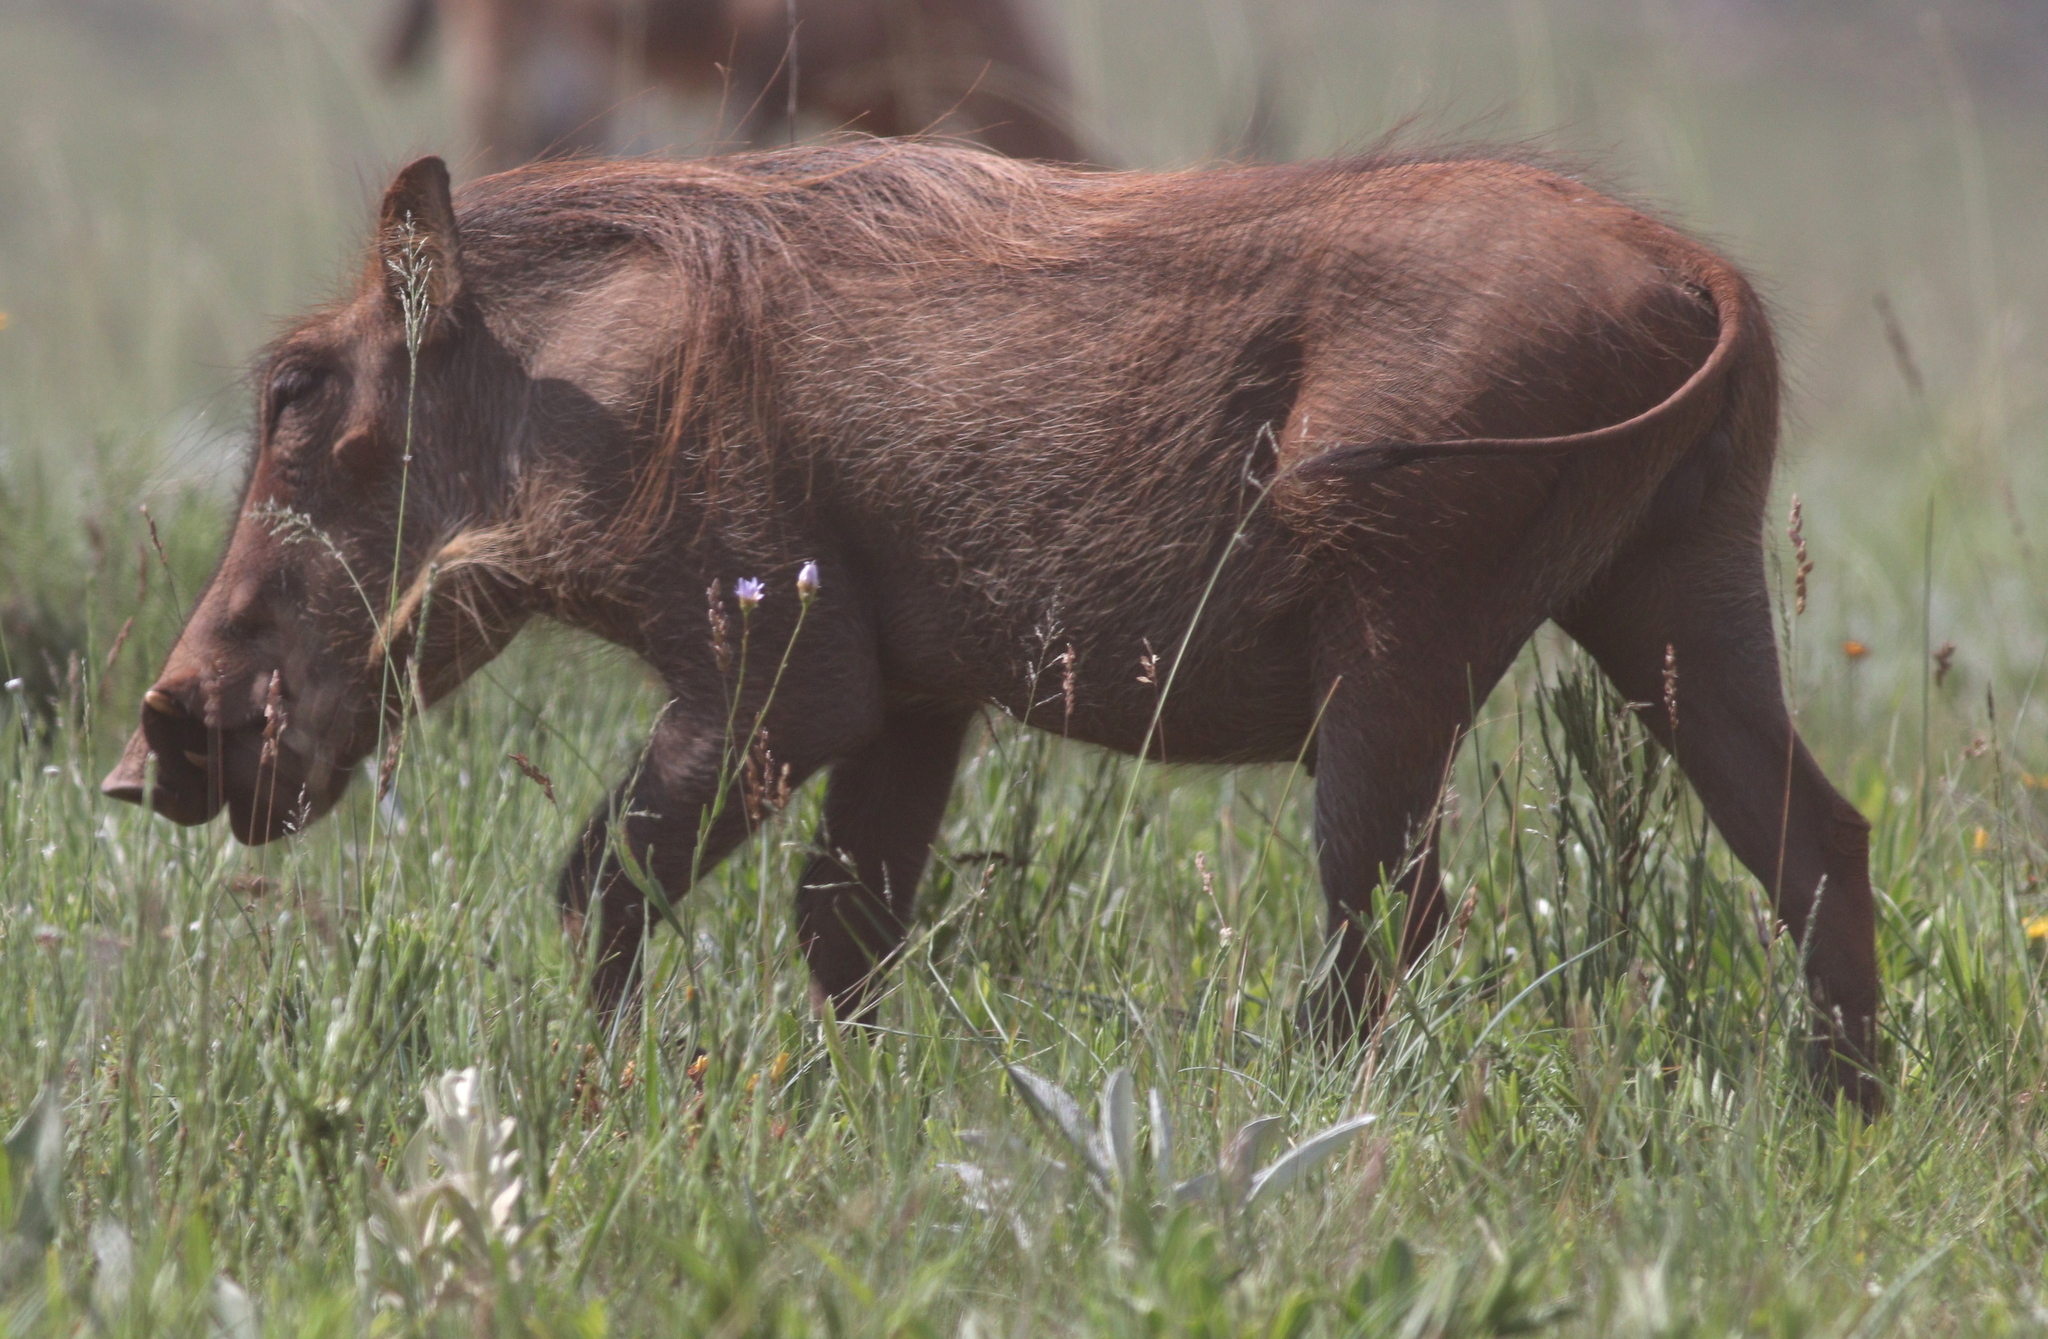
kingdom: Animalia
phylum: Chordata
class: Mammalia
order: Artiodactyla
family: Suidae
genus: Phacochoerus
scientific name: Phacochoerus africanus
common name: Common warthog
